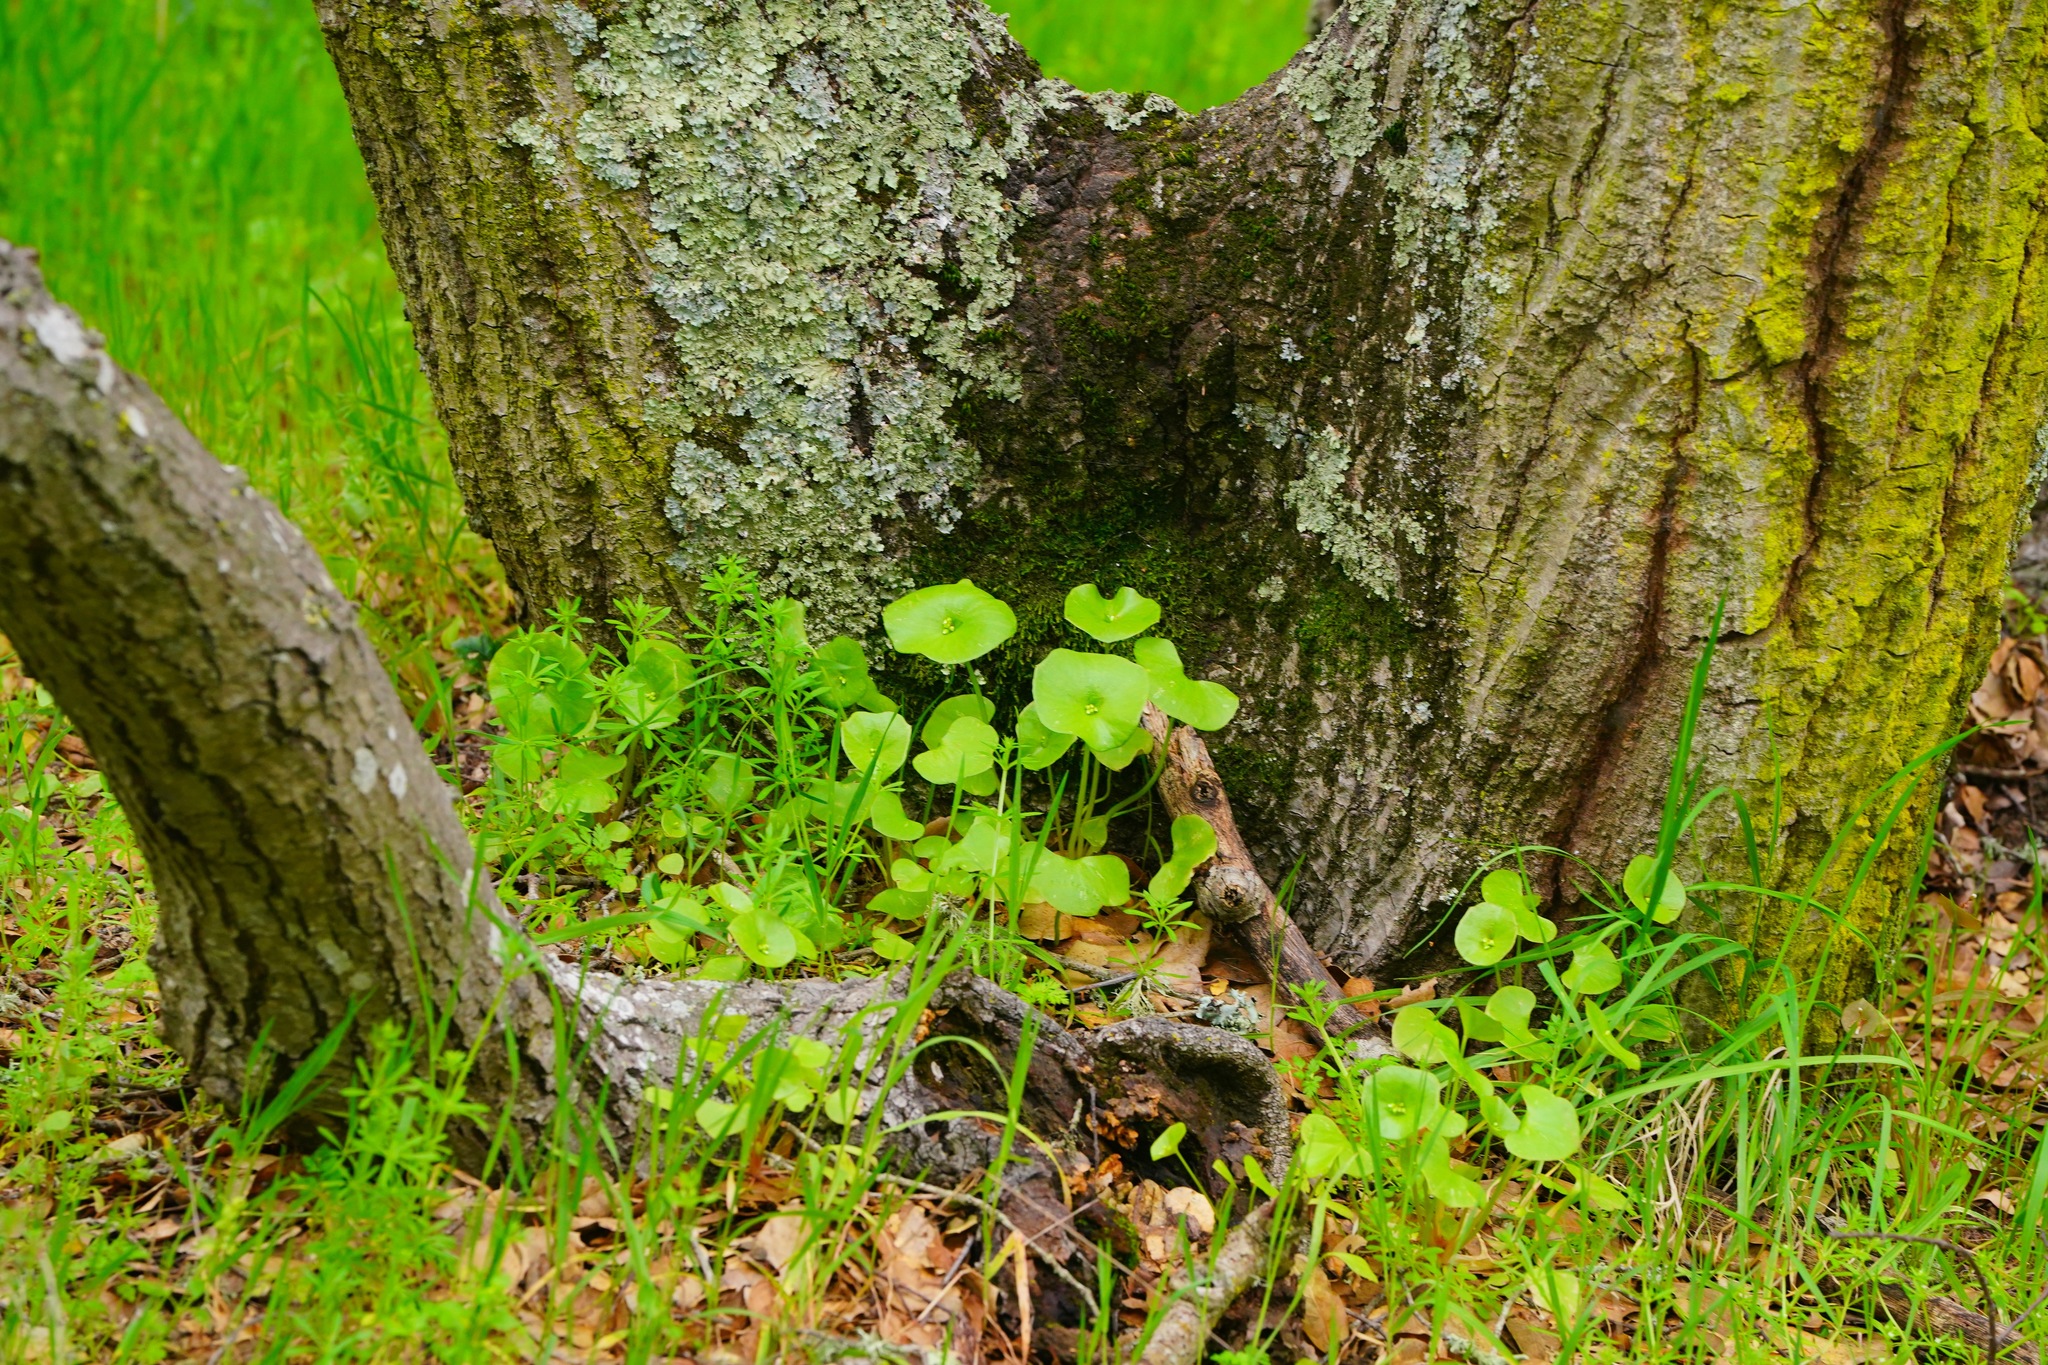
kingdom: Plantae
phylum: Tracheophyta
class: Magnoliopsida
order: Caryophyllales
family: Montiaceae
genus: Claytonia
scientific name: Claytonia perfoliata
